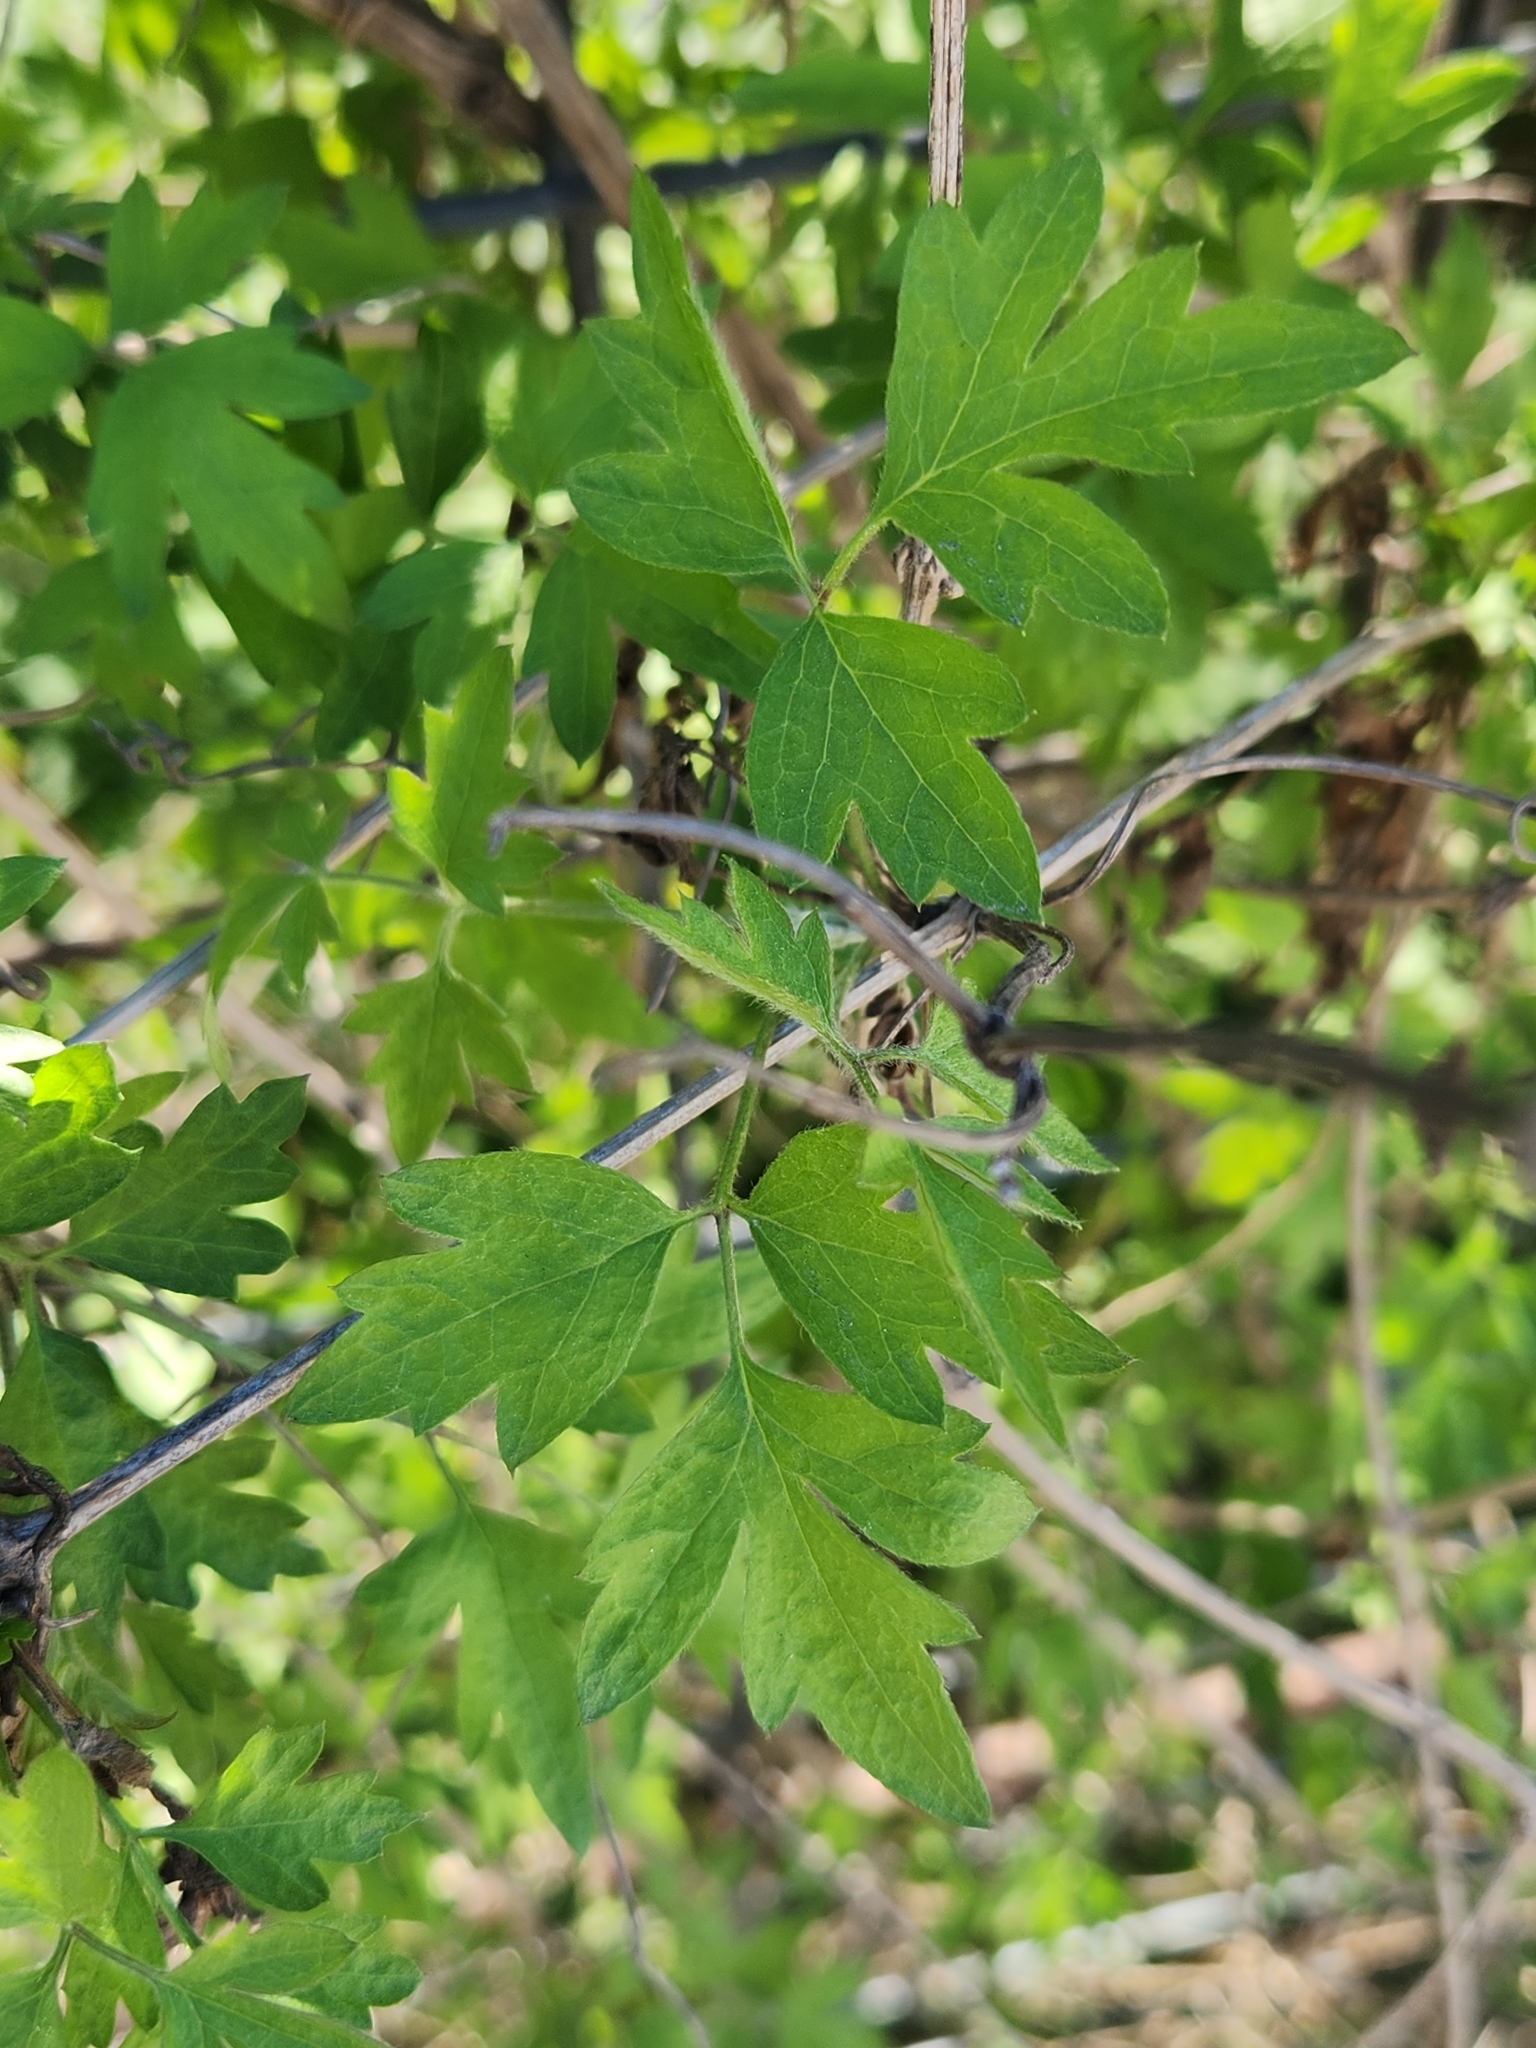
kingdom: Plantae
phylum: Tracheophyta
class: Magnoliopsida
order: Ranunculales
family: Ranunculaceae
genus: Clematis
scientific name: Clematis drummondii
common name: Texas virgin's bower
